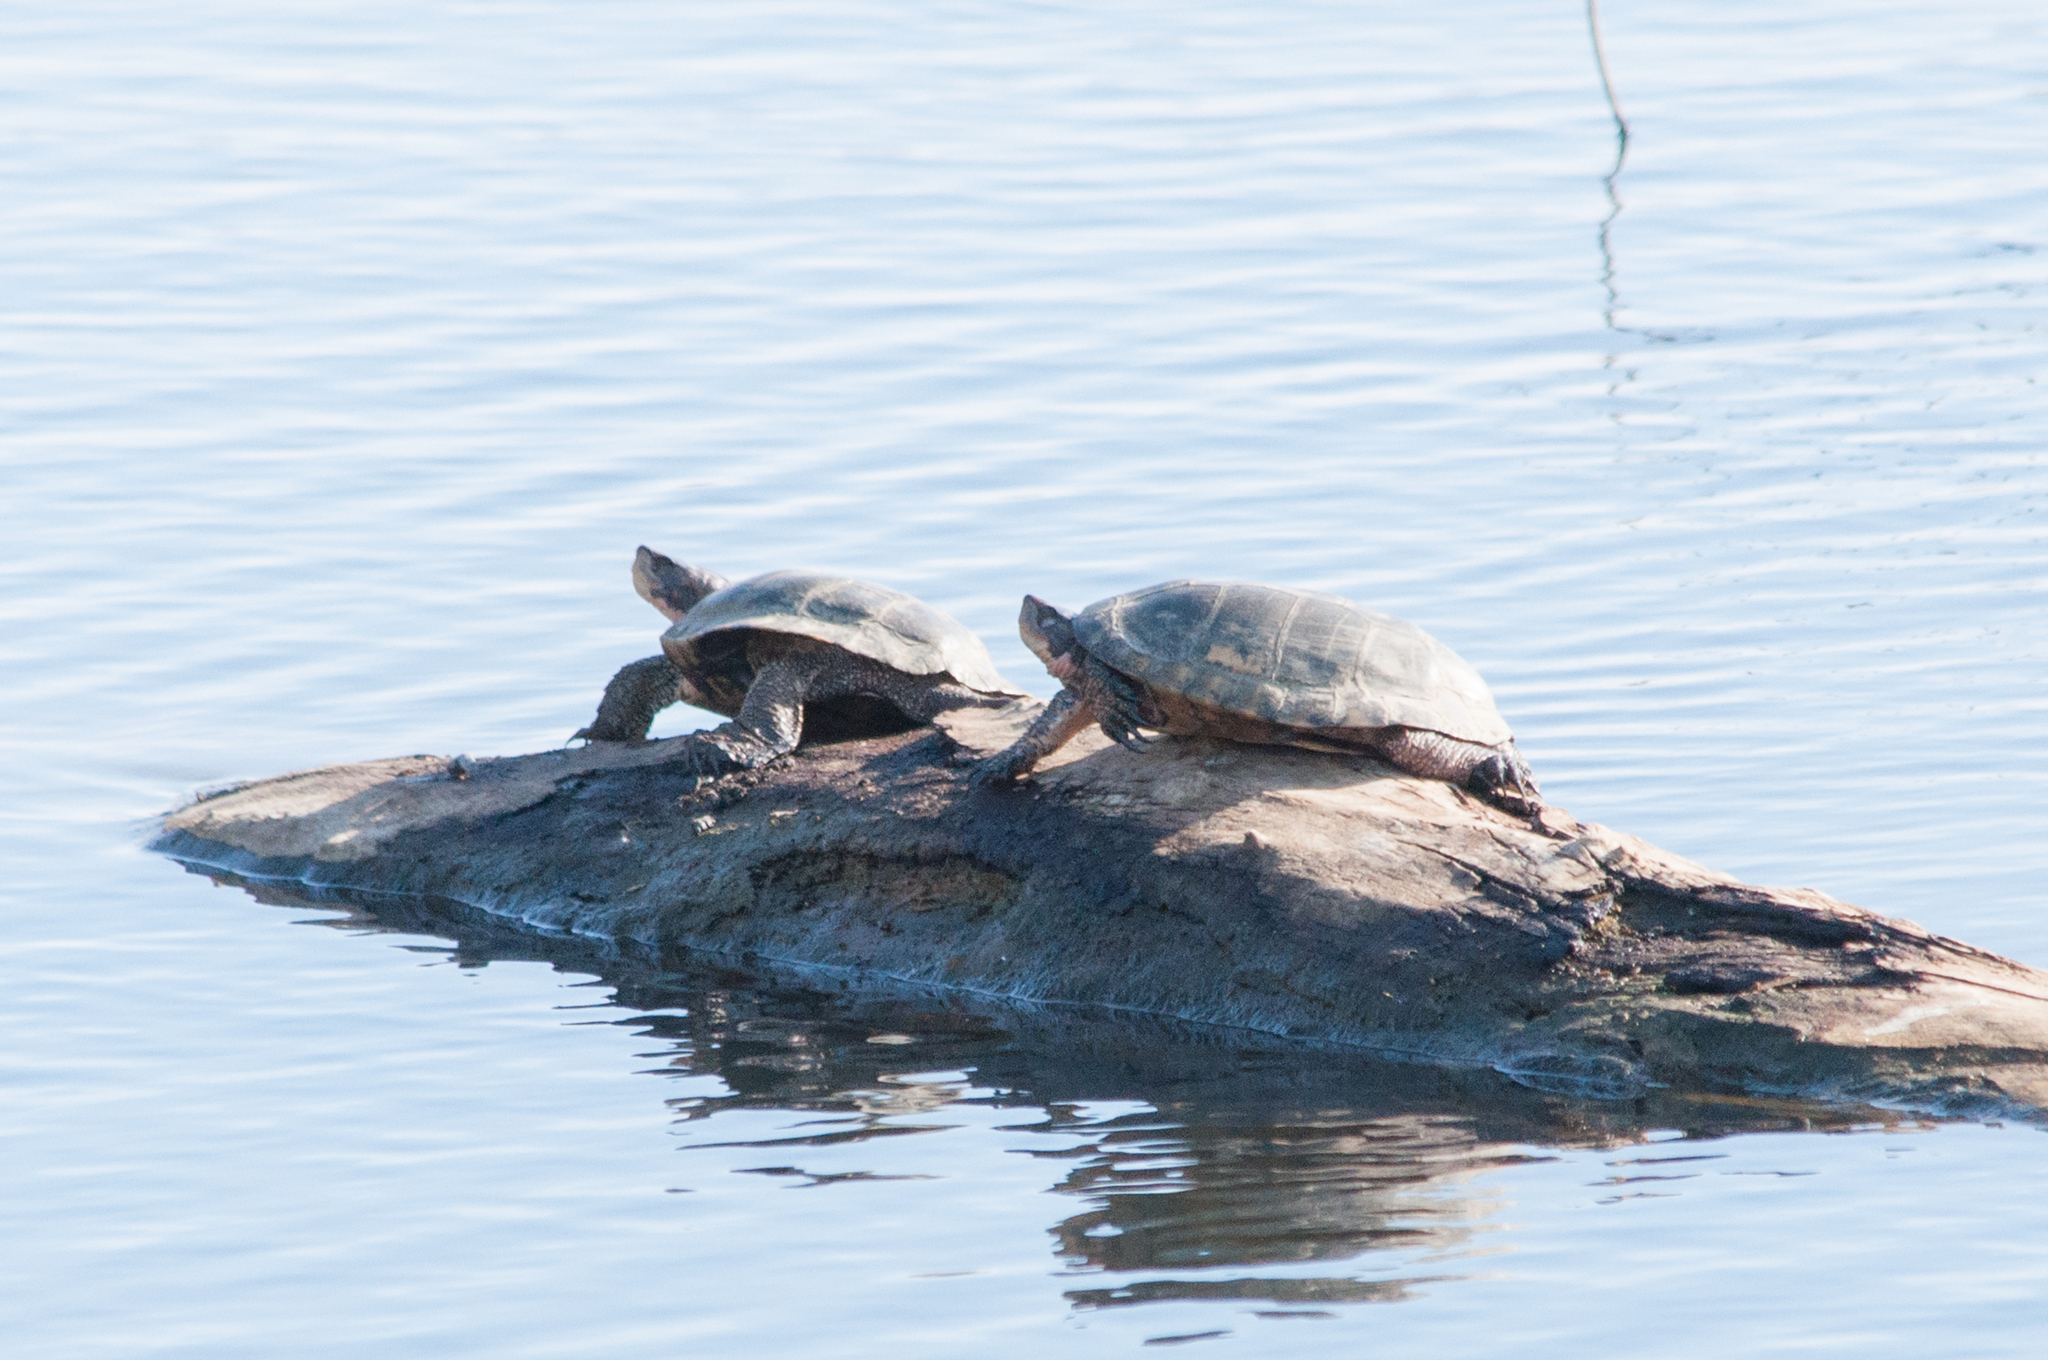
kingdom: Animalia
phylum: Chordata
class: Testudines
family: Emydidae
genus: Actinemys
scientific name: Actinemys marmorata
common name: Western pond turtle
